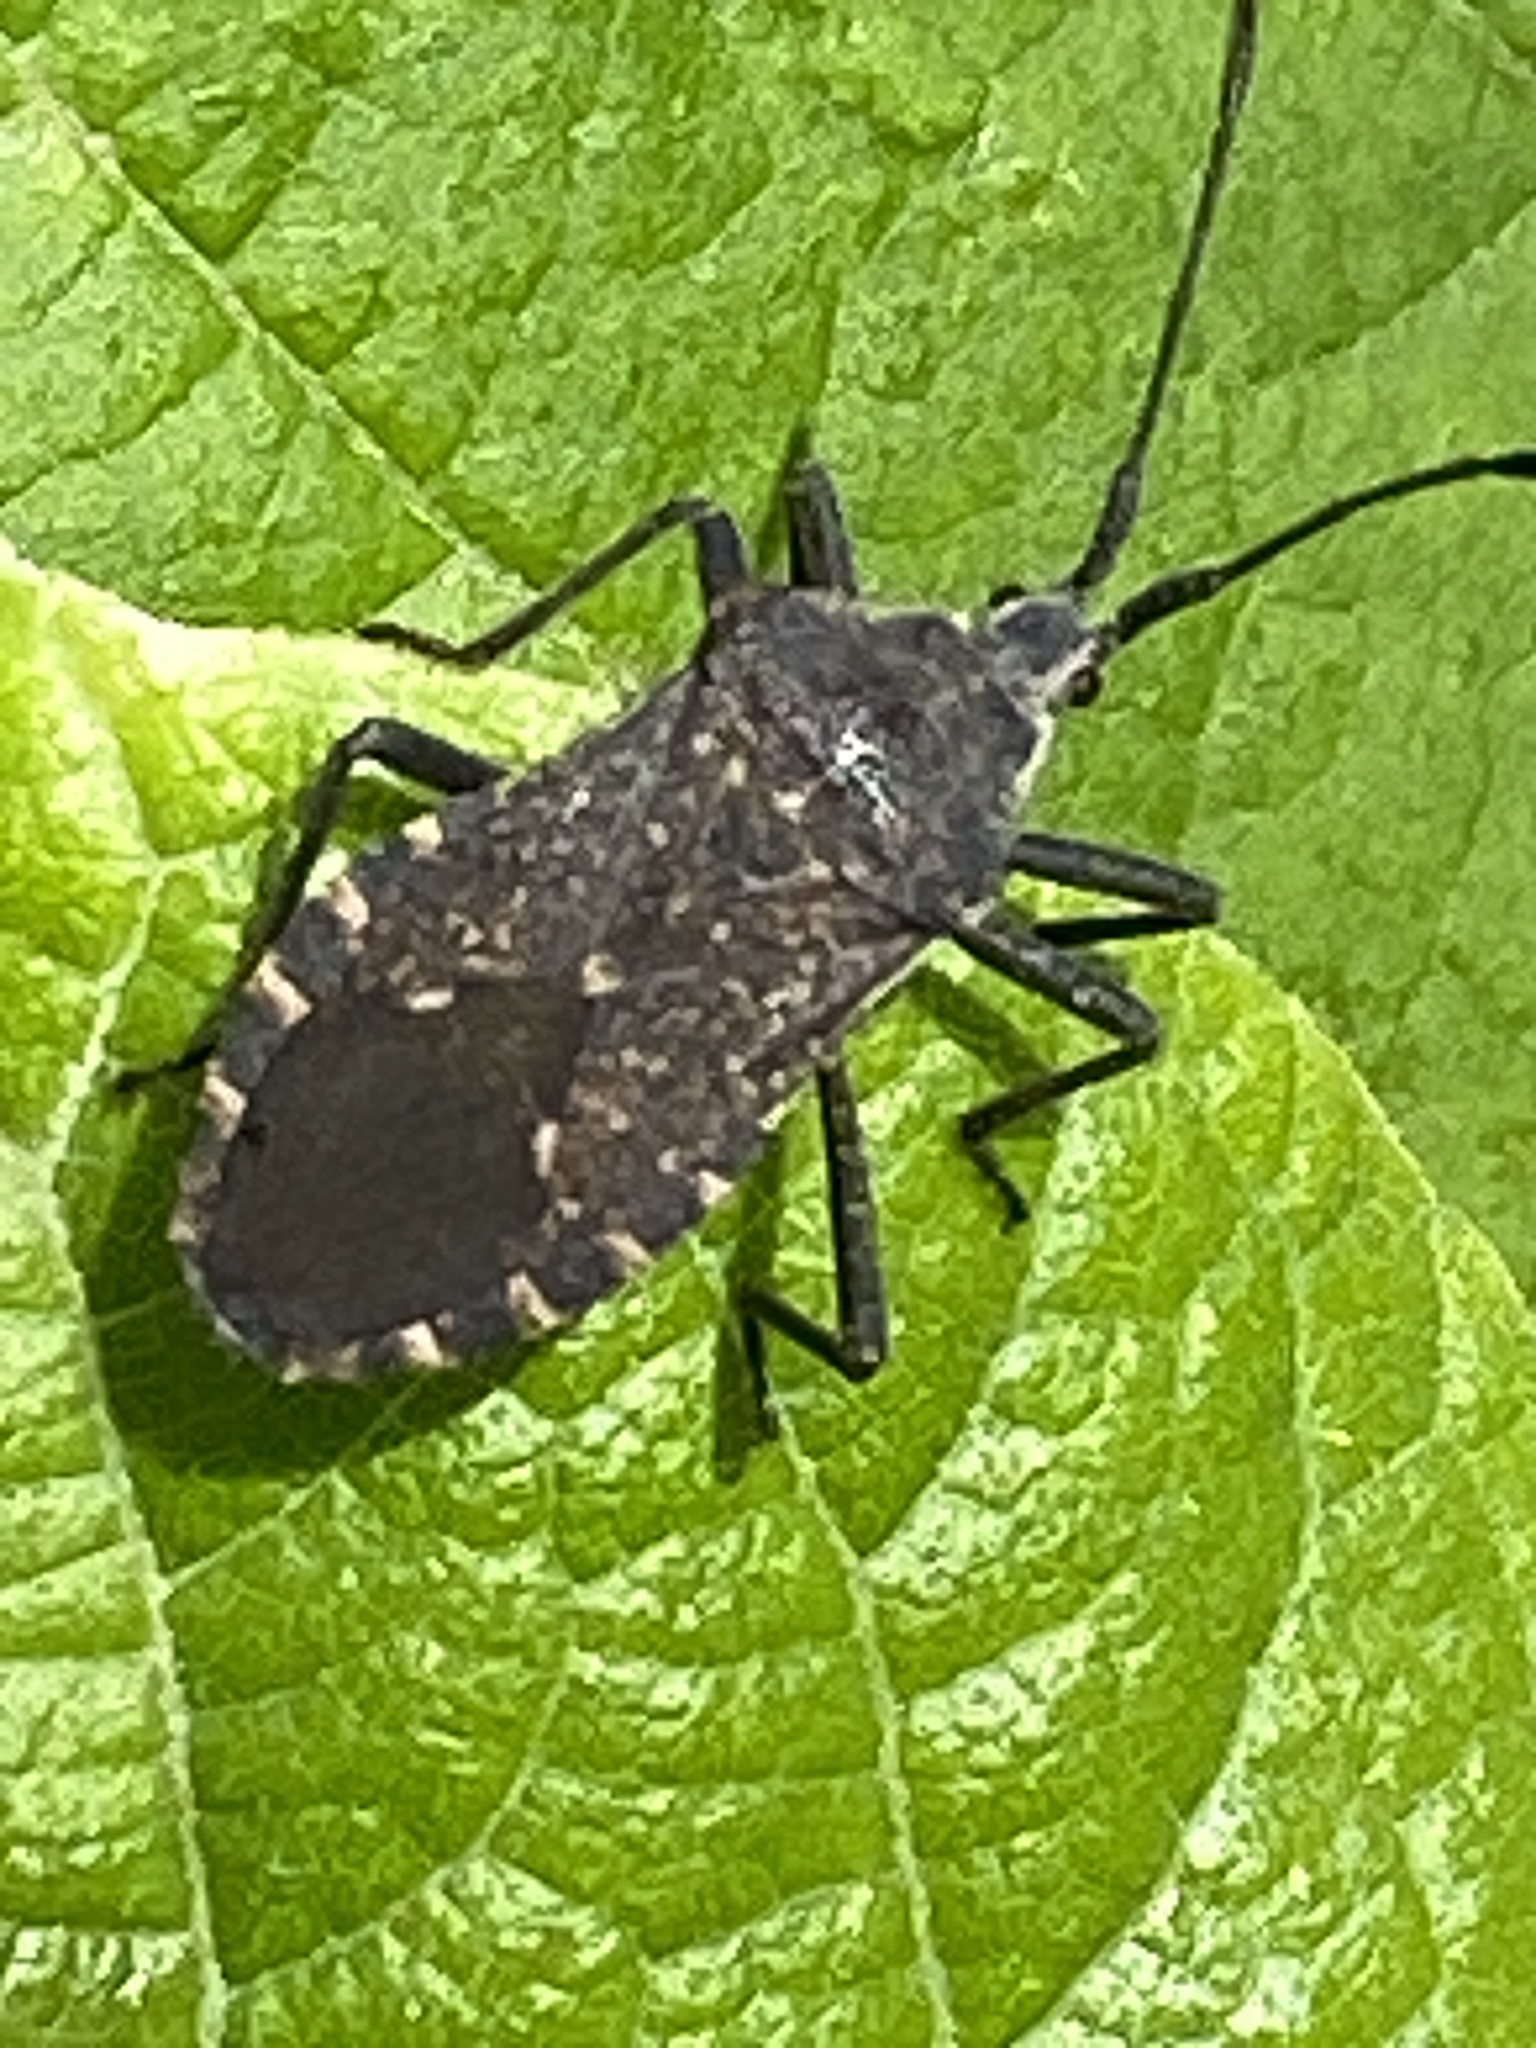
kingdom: Animalia
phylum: Arthropoda
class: Insecta
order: Hemiptera
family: Coreidae
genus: Cimolus
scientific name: Cimolus obscurus
